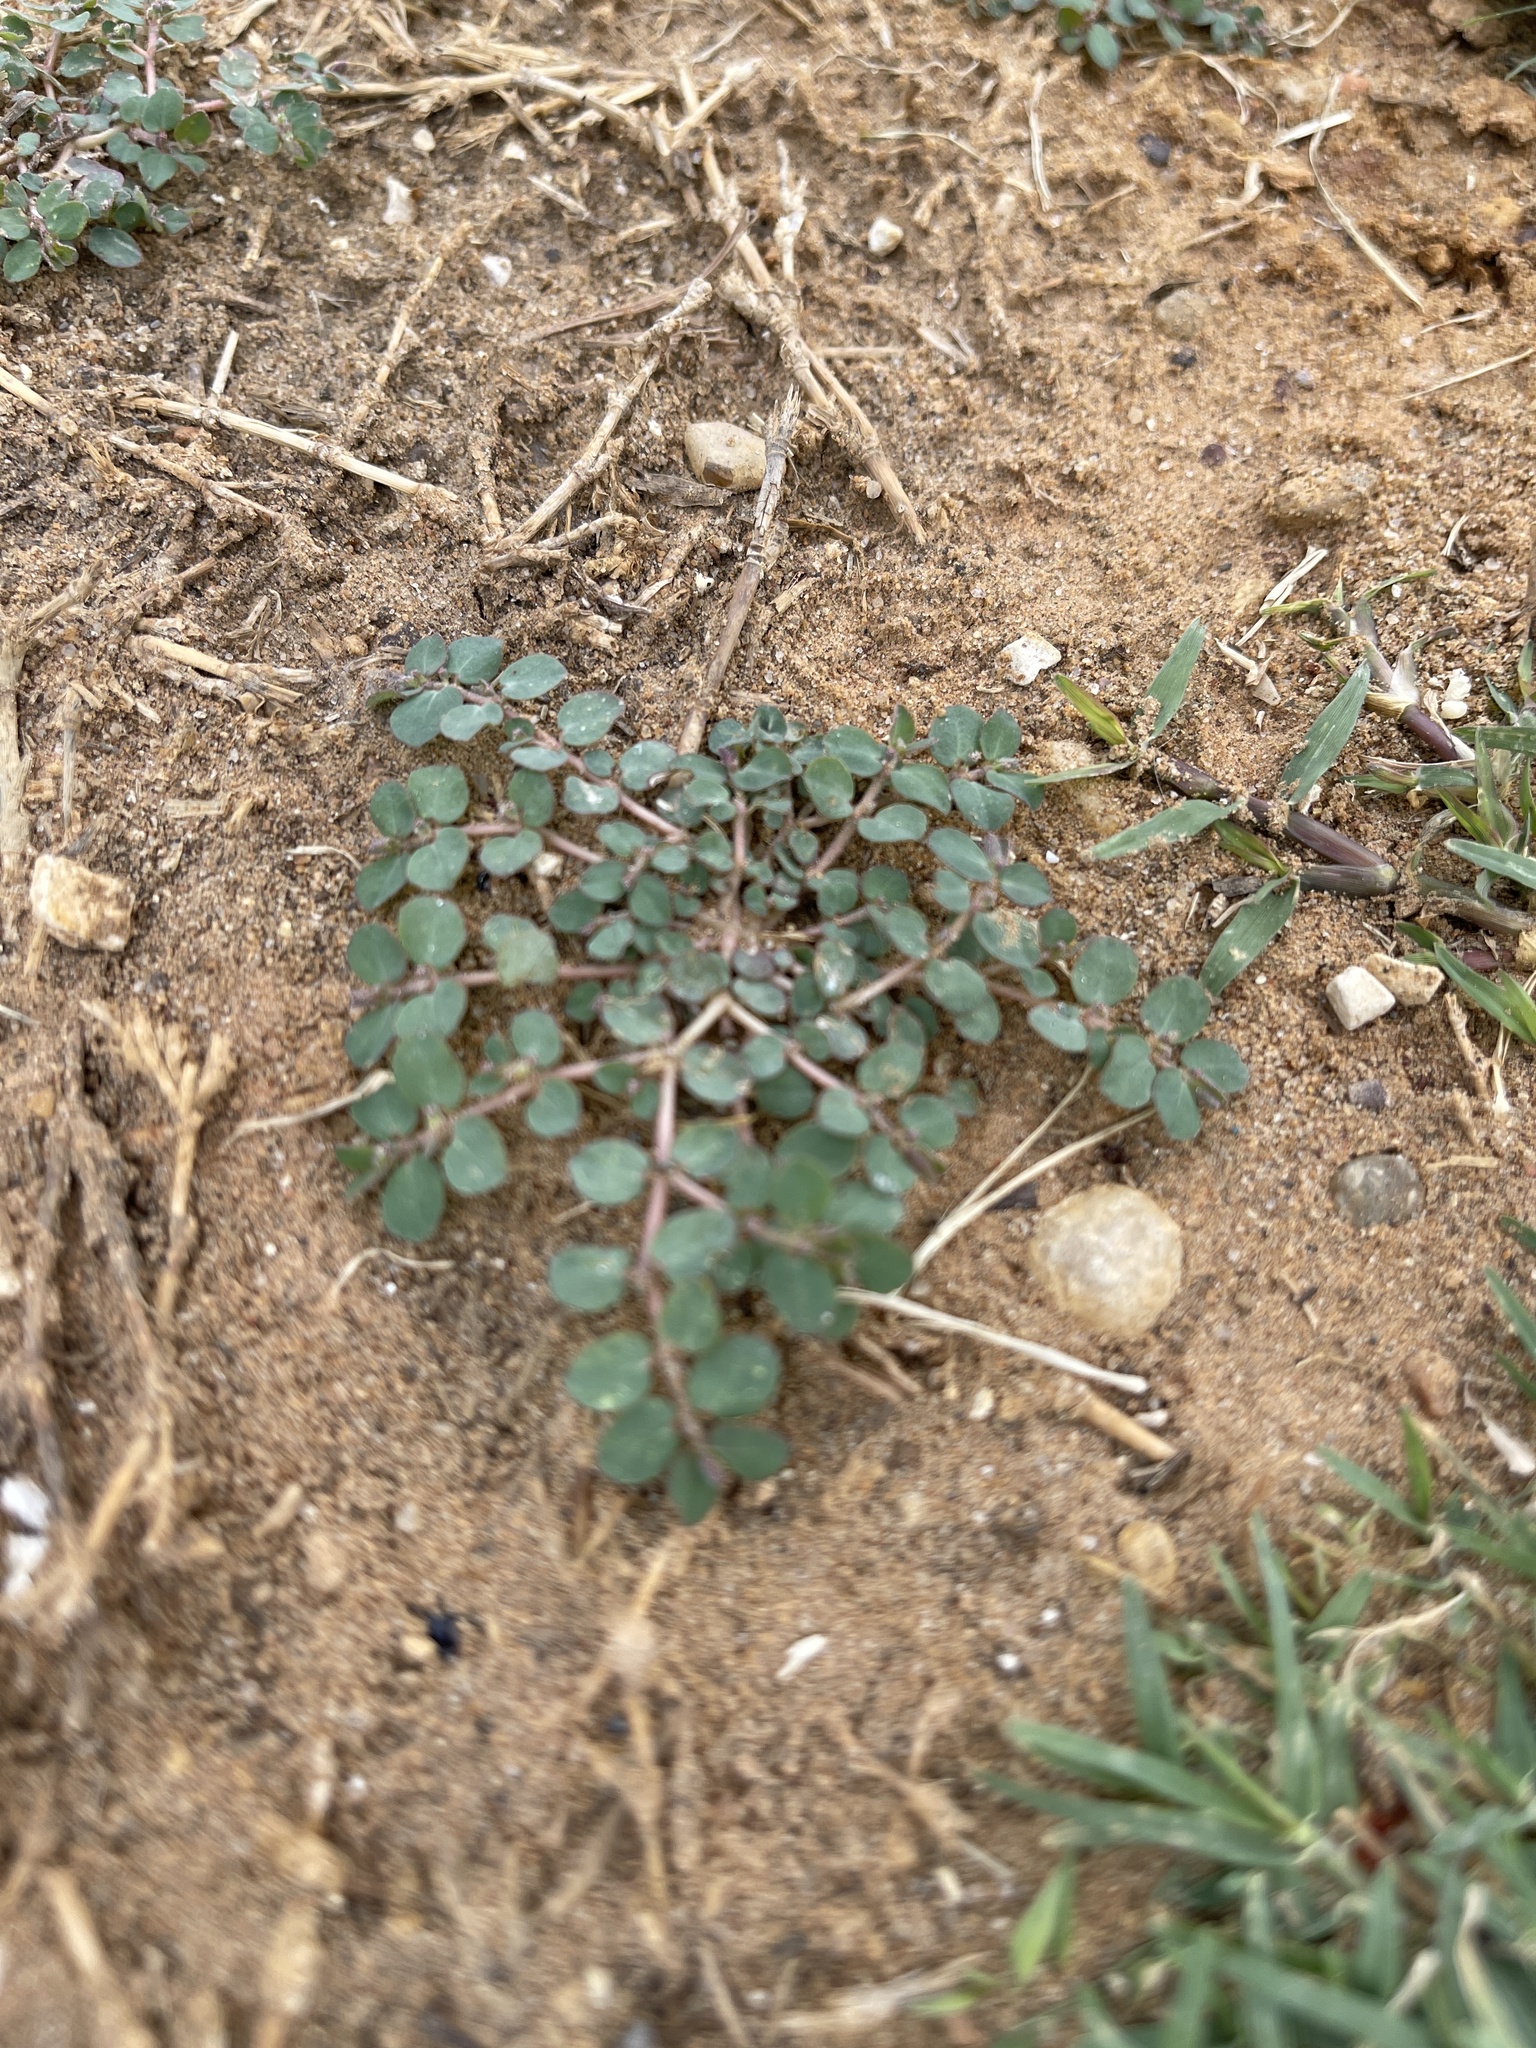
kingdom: Plantae
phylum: Tracheophyta
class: Magnoliopsida
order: Malpighiales
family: Euphorbiaceae
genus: Euphorbia
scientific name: Euphorbia prostrata
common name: Prostrate sandmat
